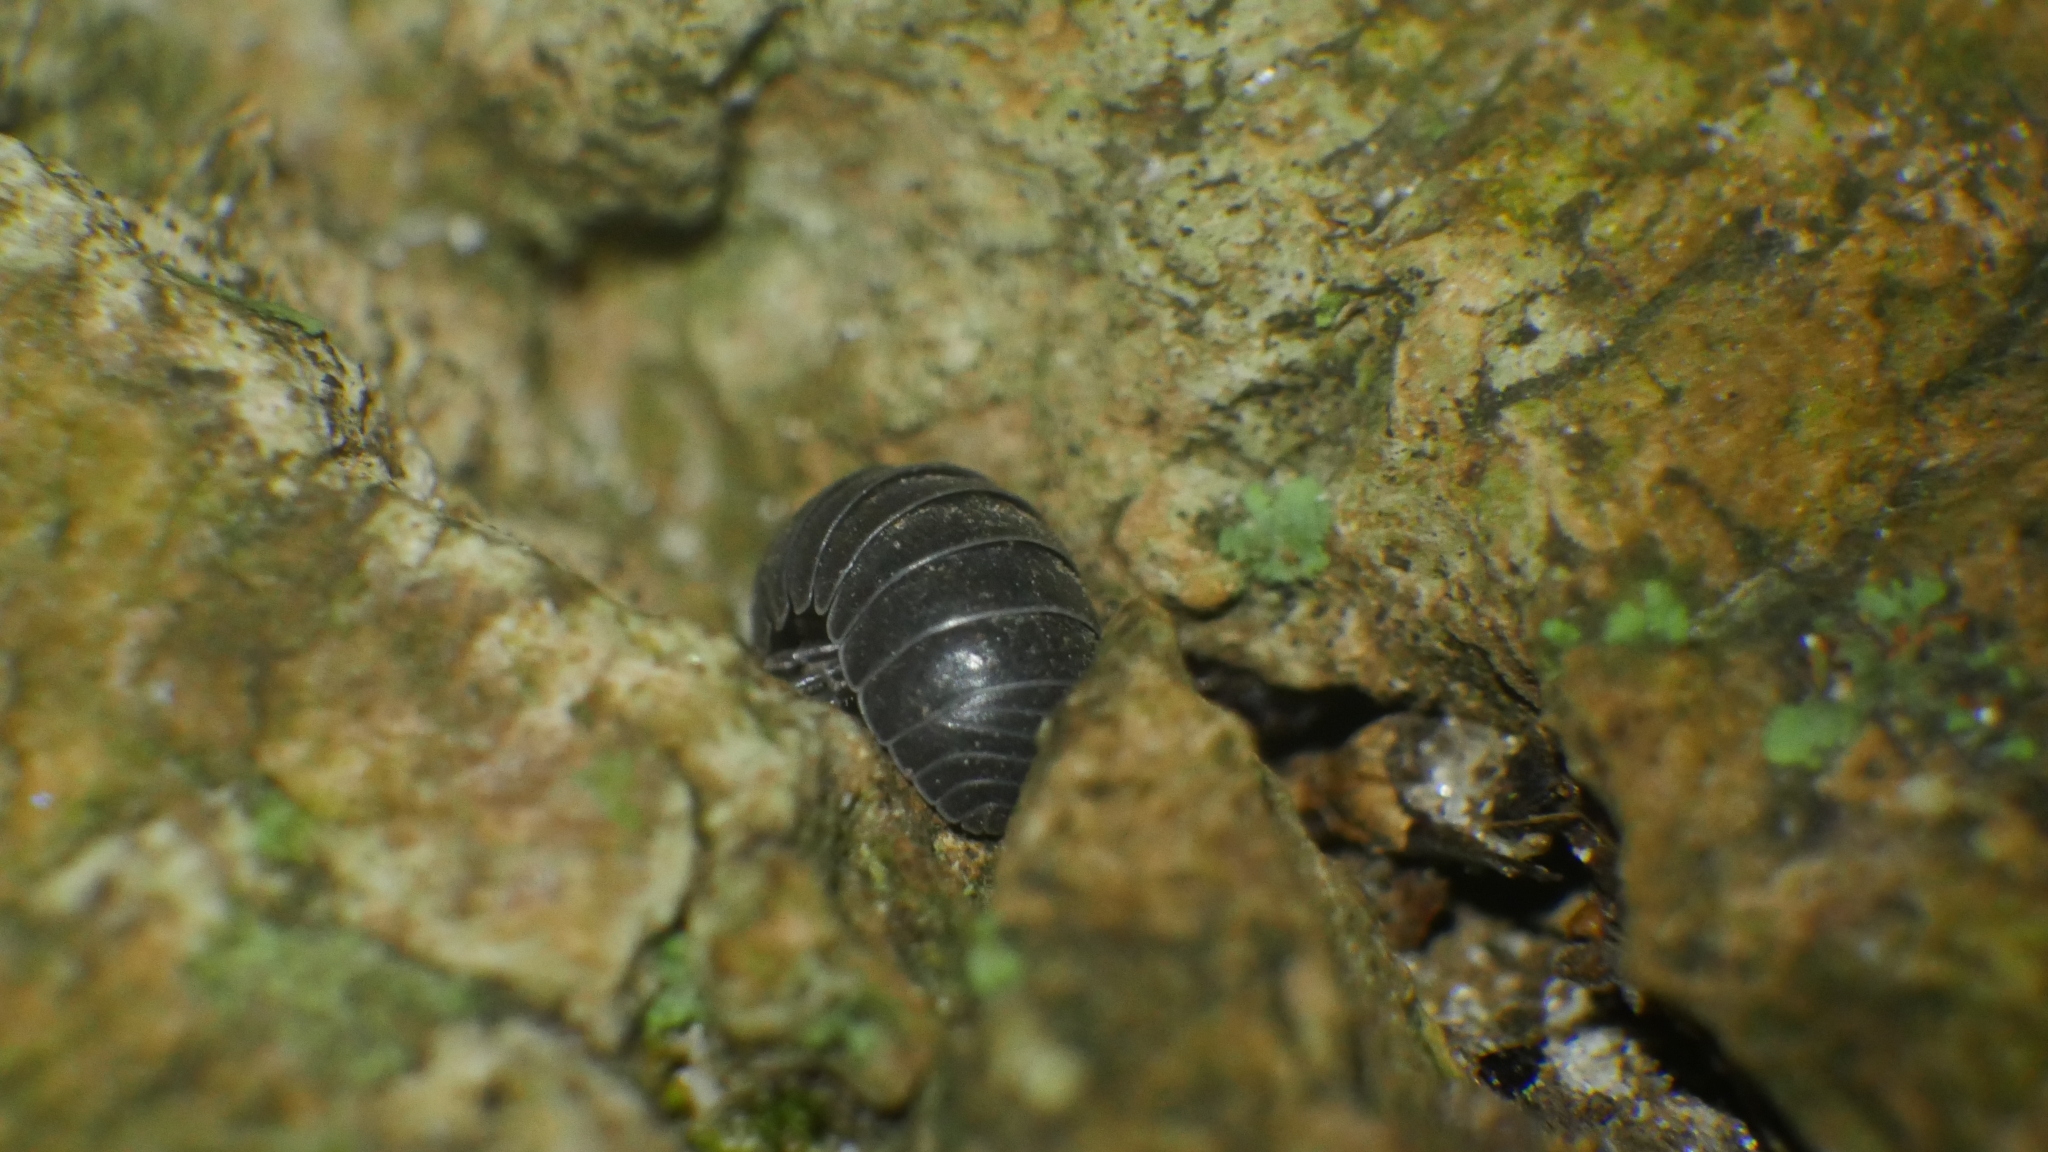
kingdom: Animalia
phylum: Arthropoda
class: Malacostraca
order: Isopoda
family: Armadillidiidae
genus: Armadillidium
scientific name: Armadillidium vulgare
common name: Common pill woodlouse
